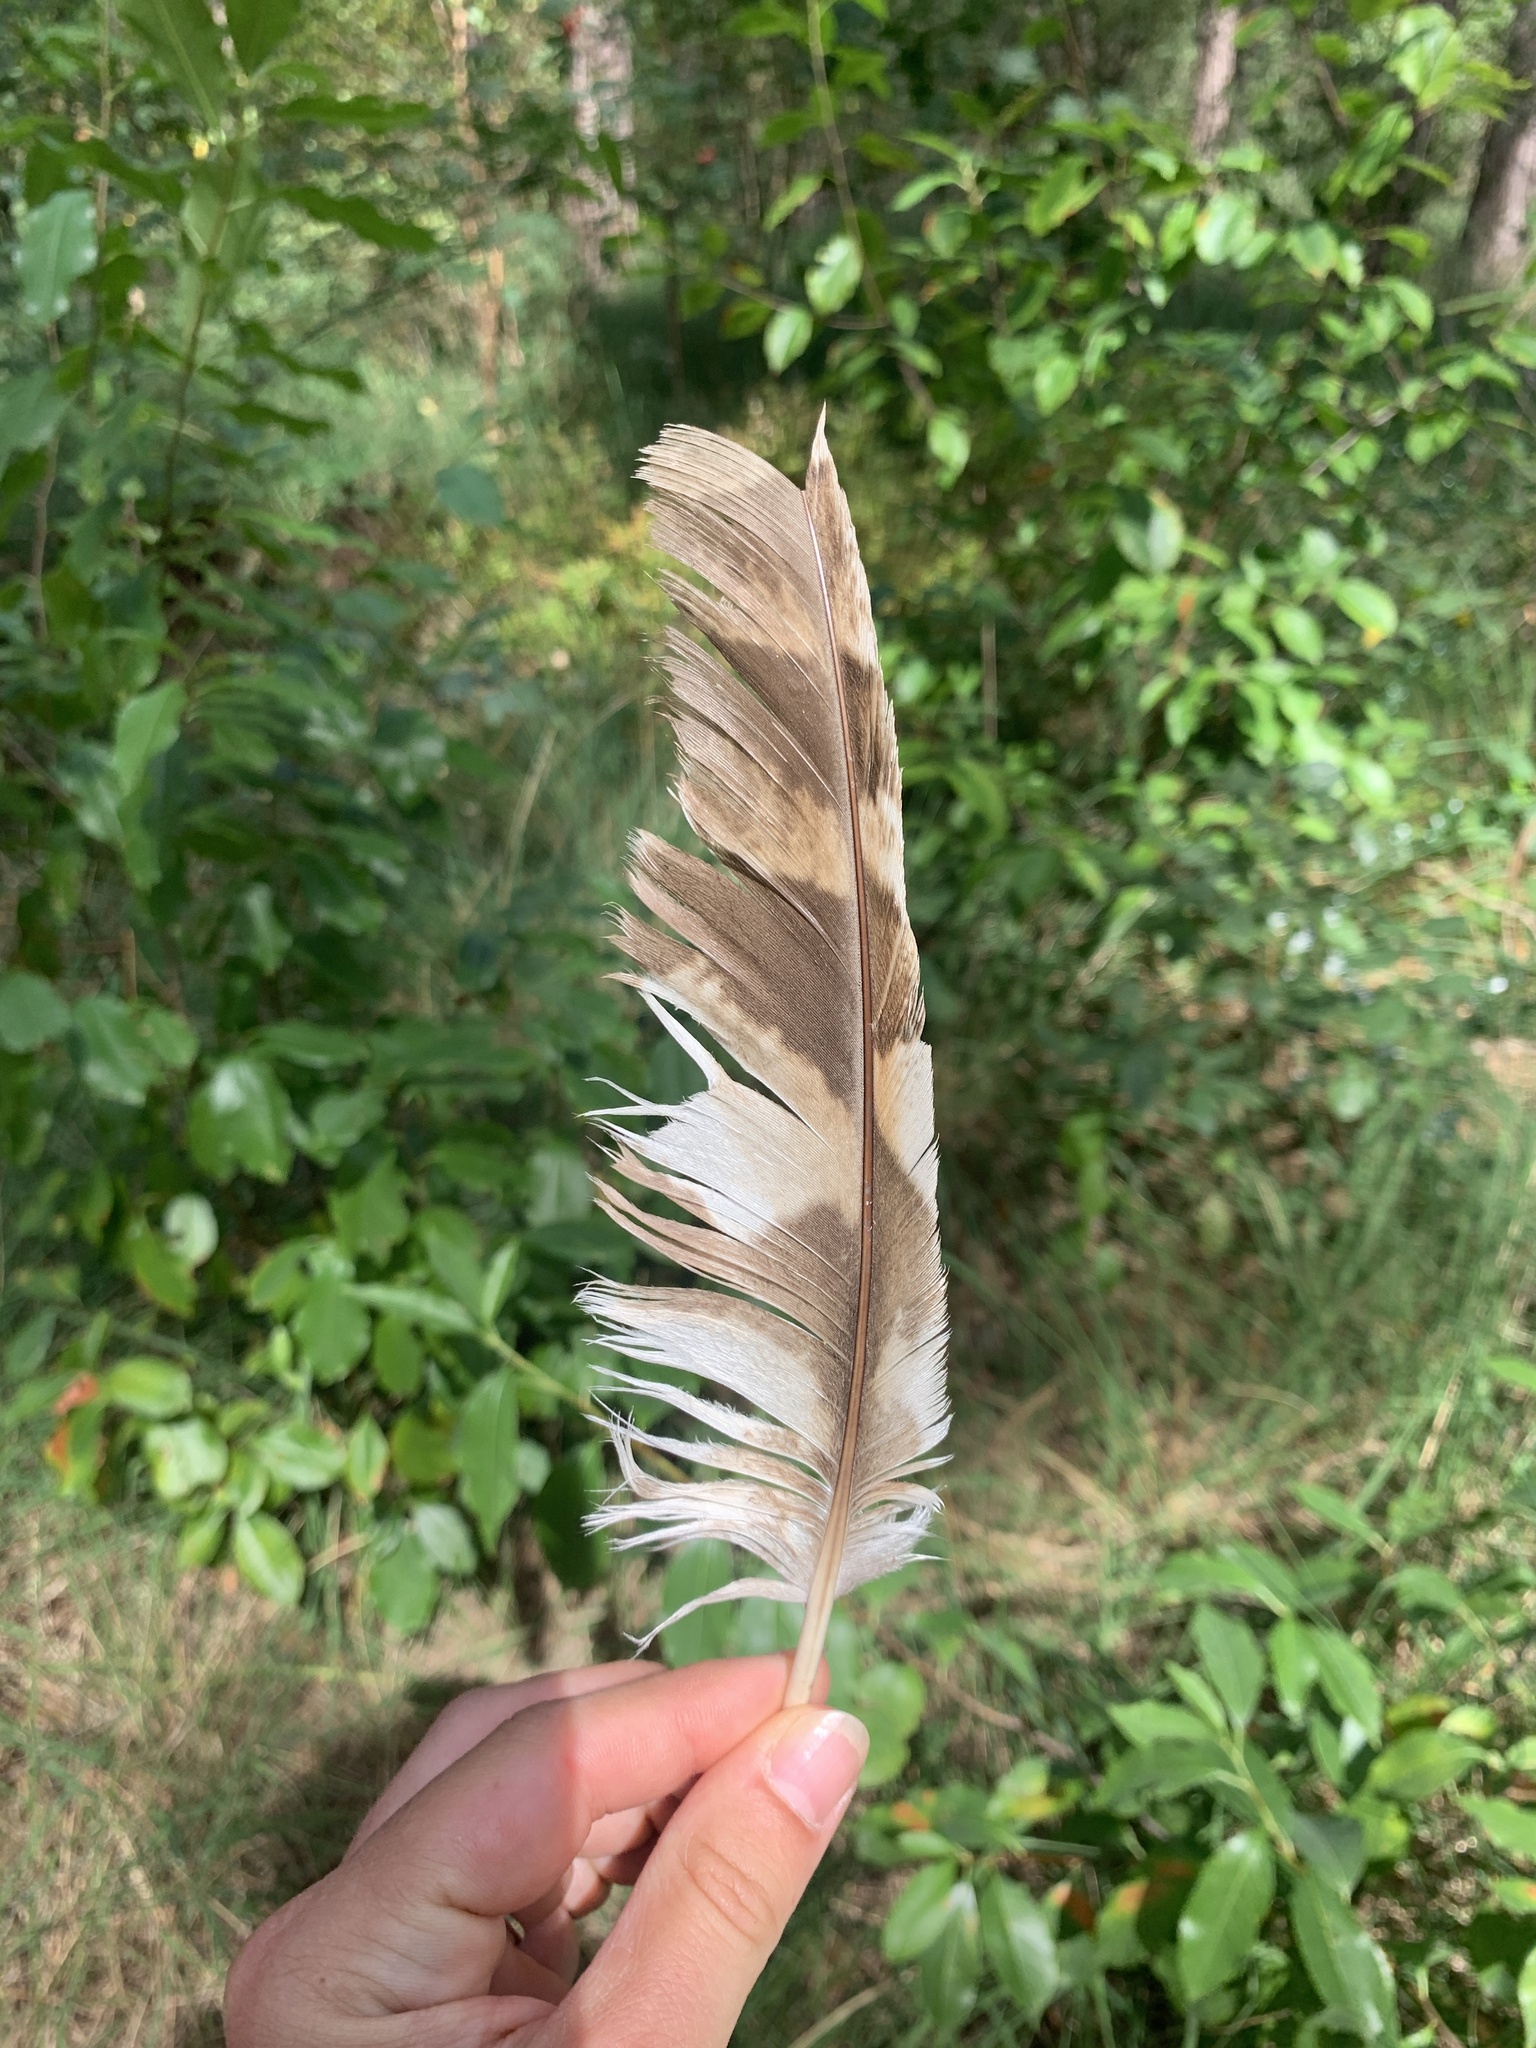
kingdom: Animalia
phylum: Chordata
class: Aves
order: Strigiformes
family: Strigidae
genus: Strix
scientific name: Strix aluco
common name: Tawny owl
